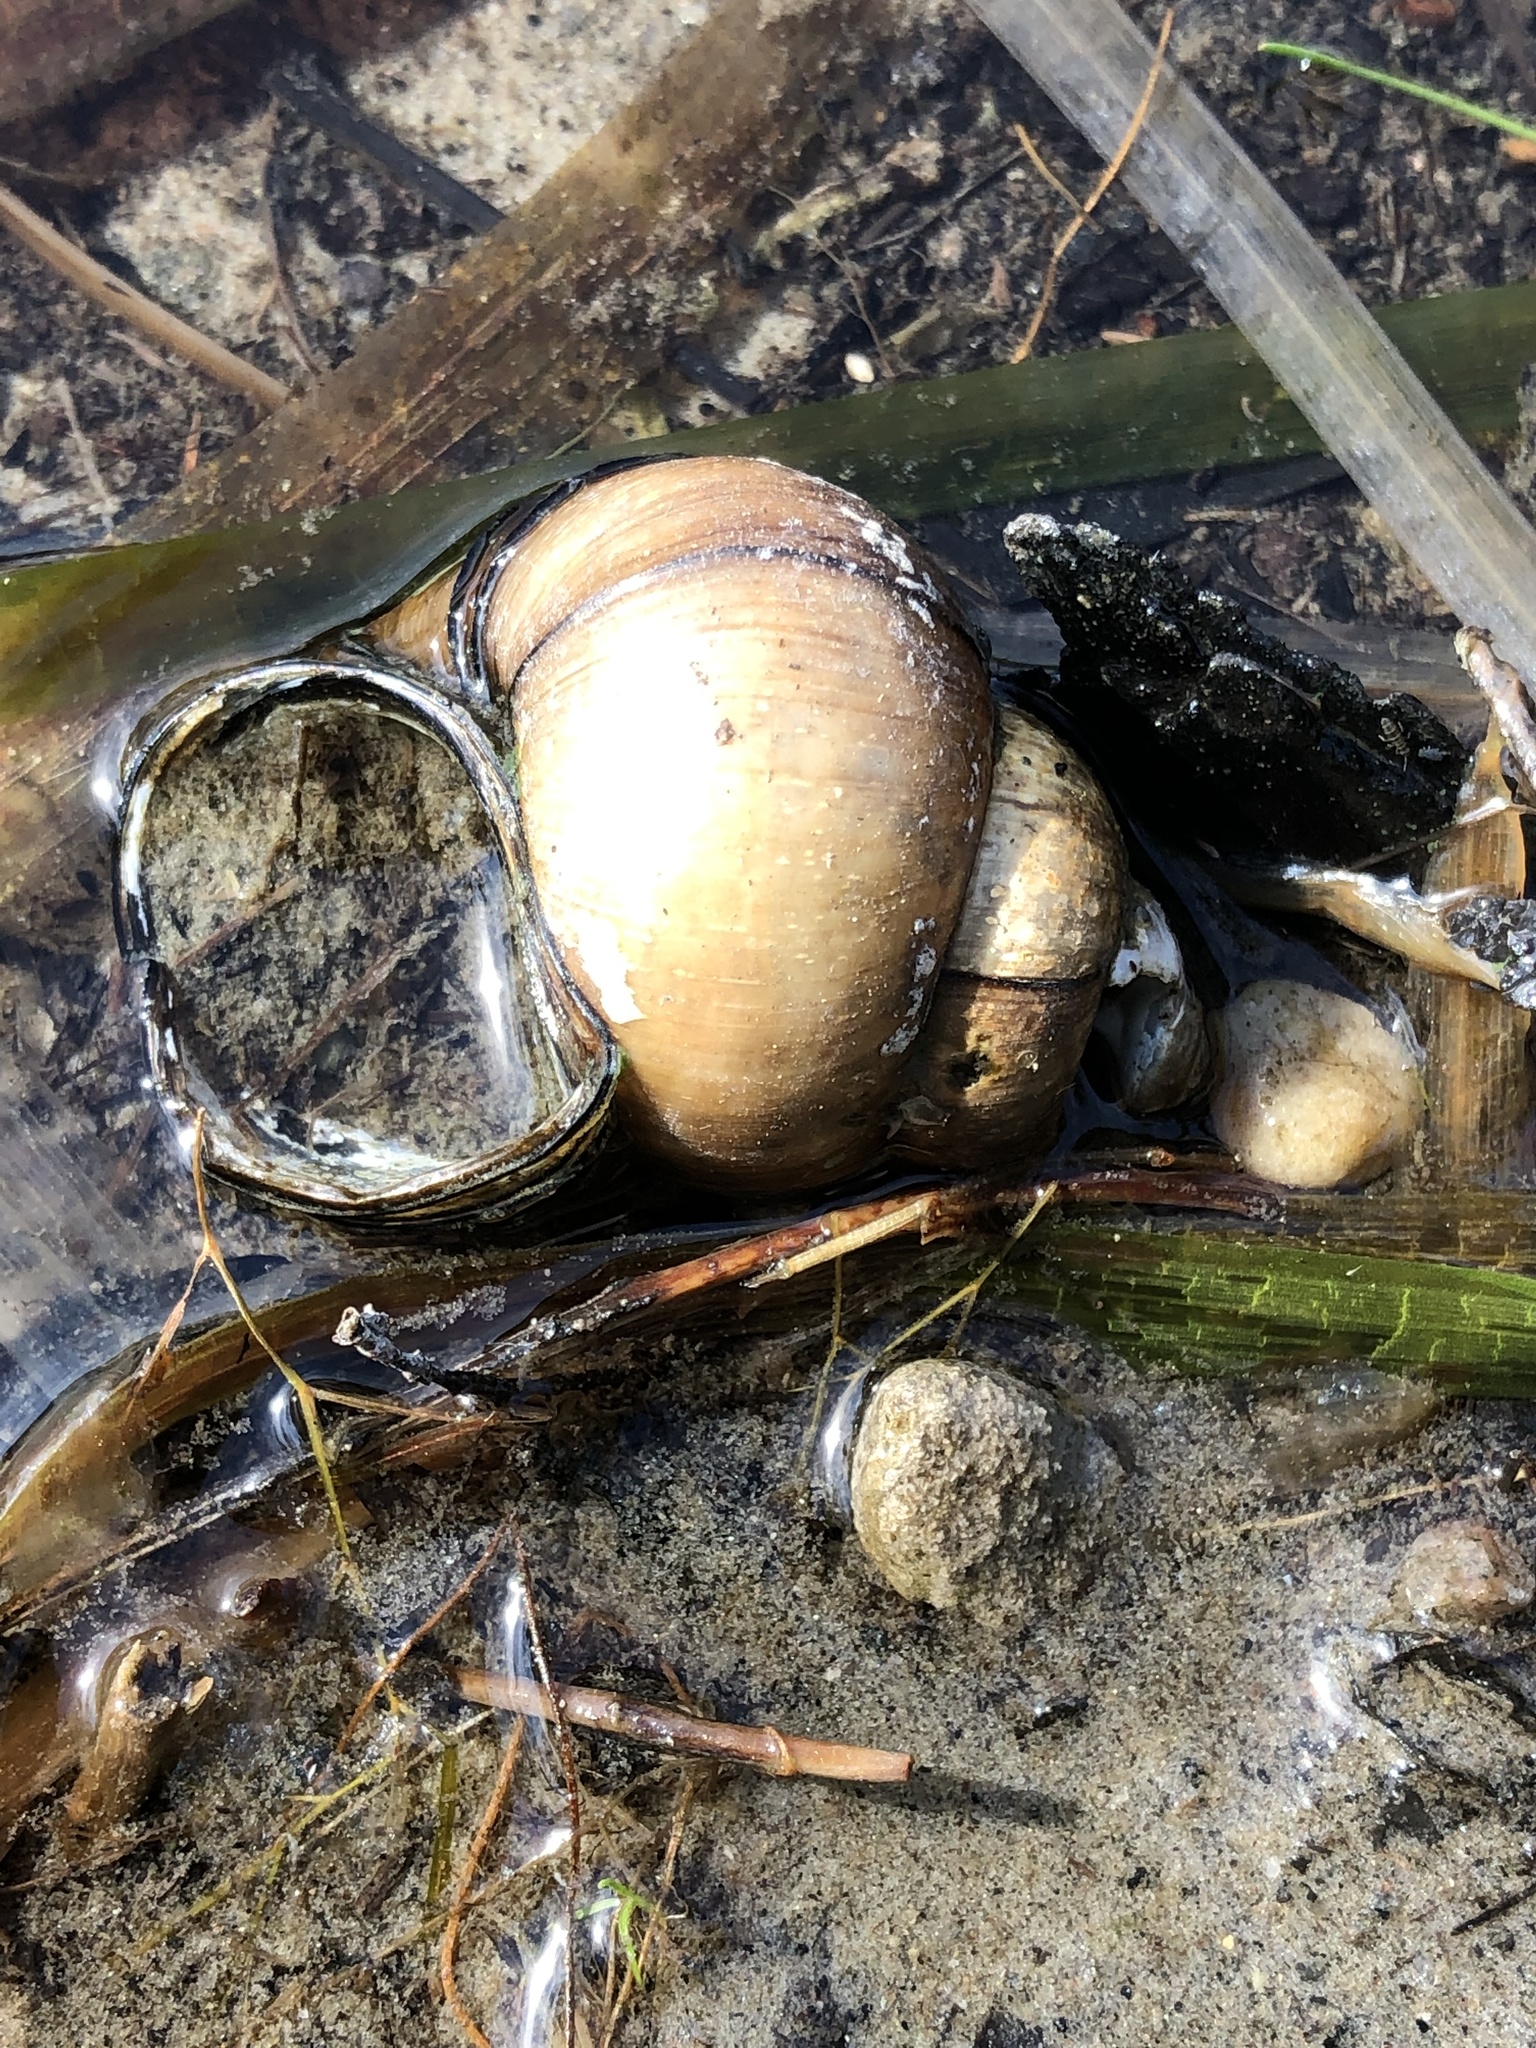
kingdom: Animalia
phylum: Mollusca
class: Gastropoda
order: Architaenioglossa
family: Viviparidae
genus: Cipangopaludina
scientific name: Cipangopaludina chinensis
